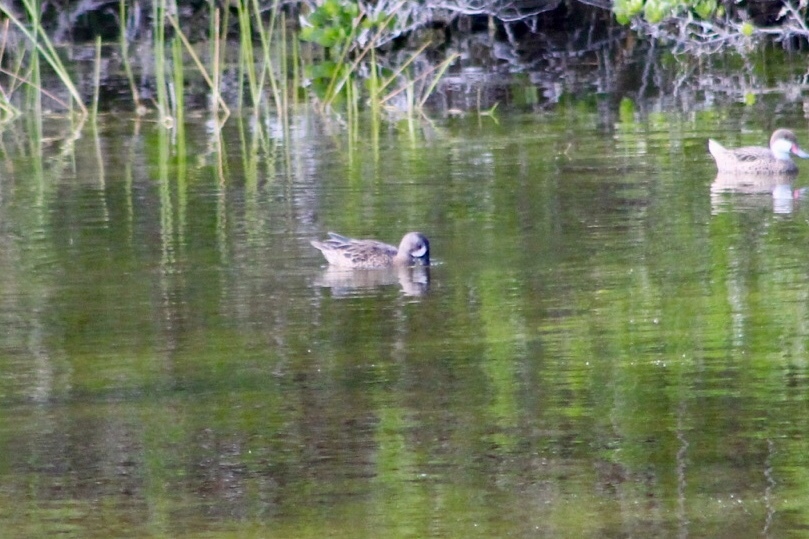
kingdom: Animalia
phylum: Chordata
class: Aves
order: Anseriformes
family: Anatidae
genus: Spatula
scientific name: Spatula discors
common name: Blue-winged teal
